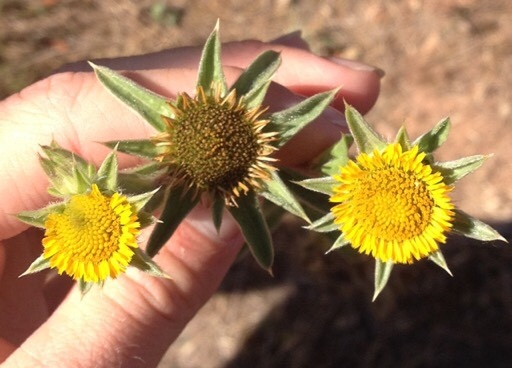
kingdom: Plantae
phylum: Tracheophyta
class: Magnoliopsida
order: Asterales
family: Asteraceae
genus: Pallenis
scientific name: Pallenis spinosa
